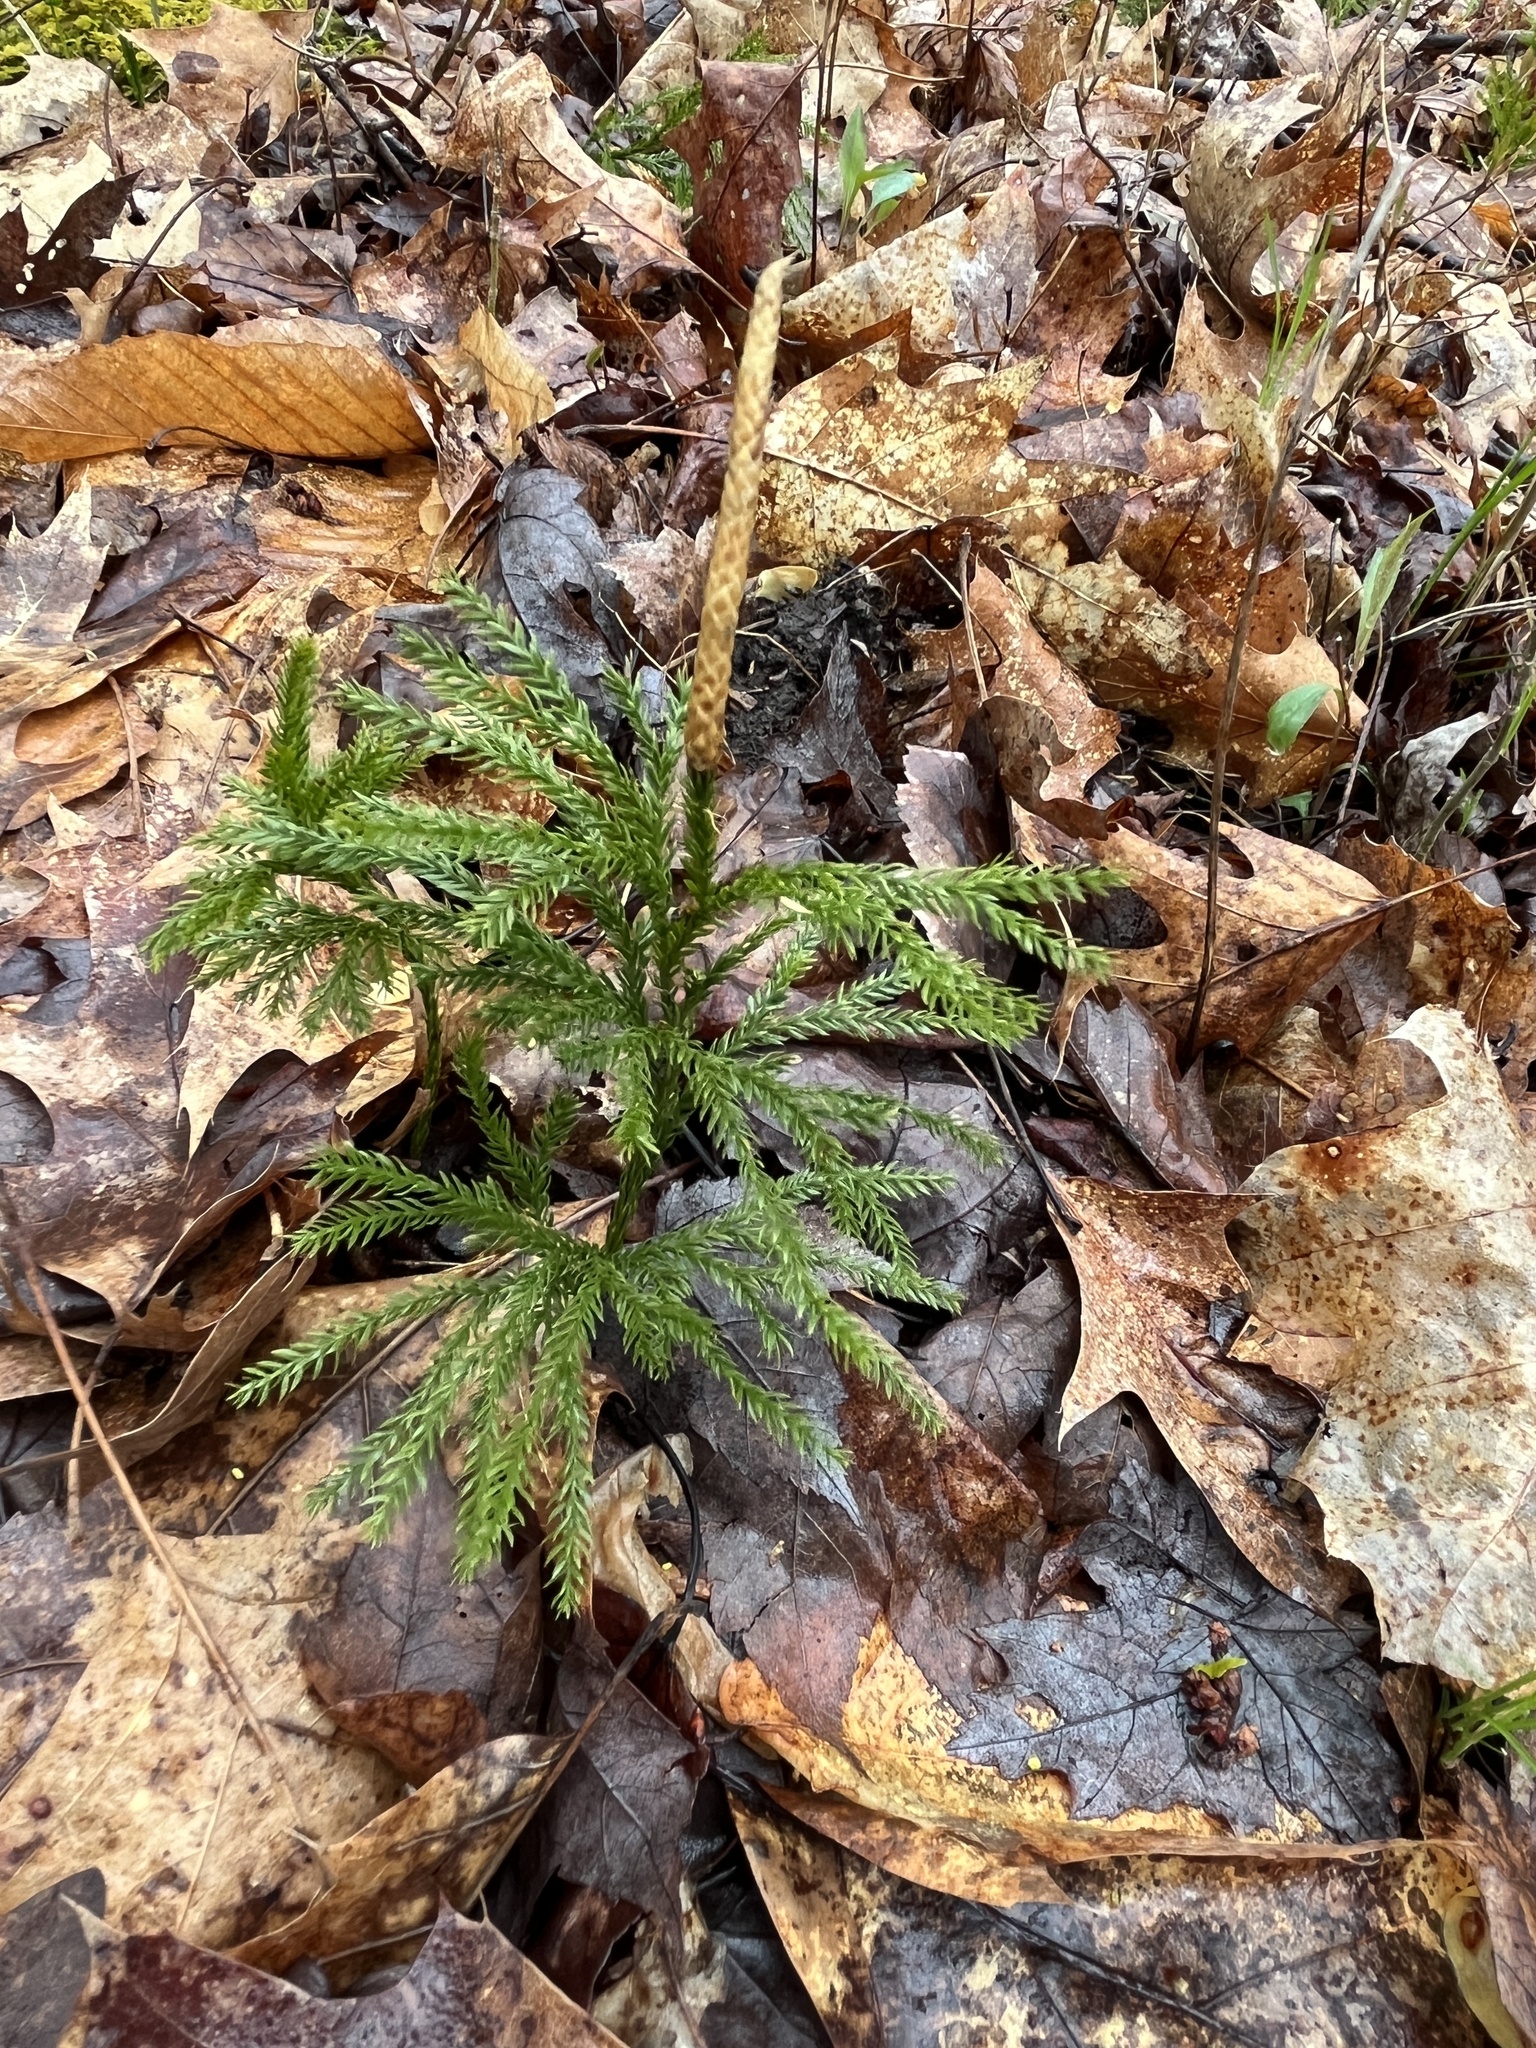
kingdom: Plantae
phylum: Tracheophyta
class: Lycopodiopsida
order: Lycopodiales
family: Lycopodiaceae
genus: Dendrolycopodium
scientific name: Dendrolycopodium obscurum
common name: Common ground-pine
